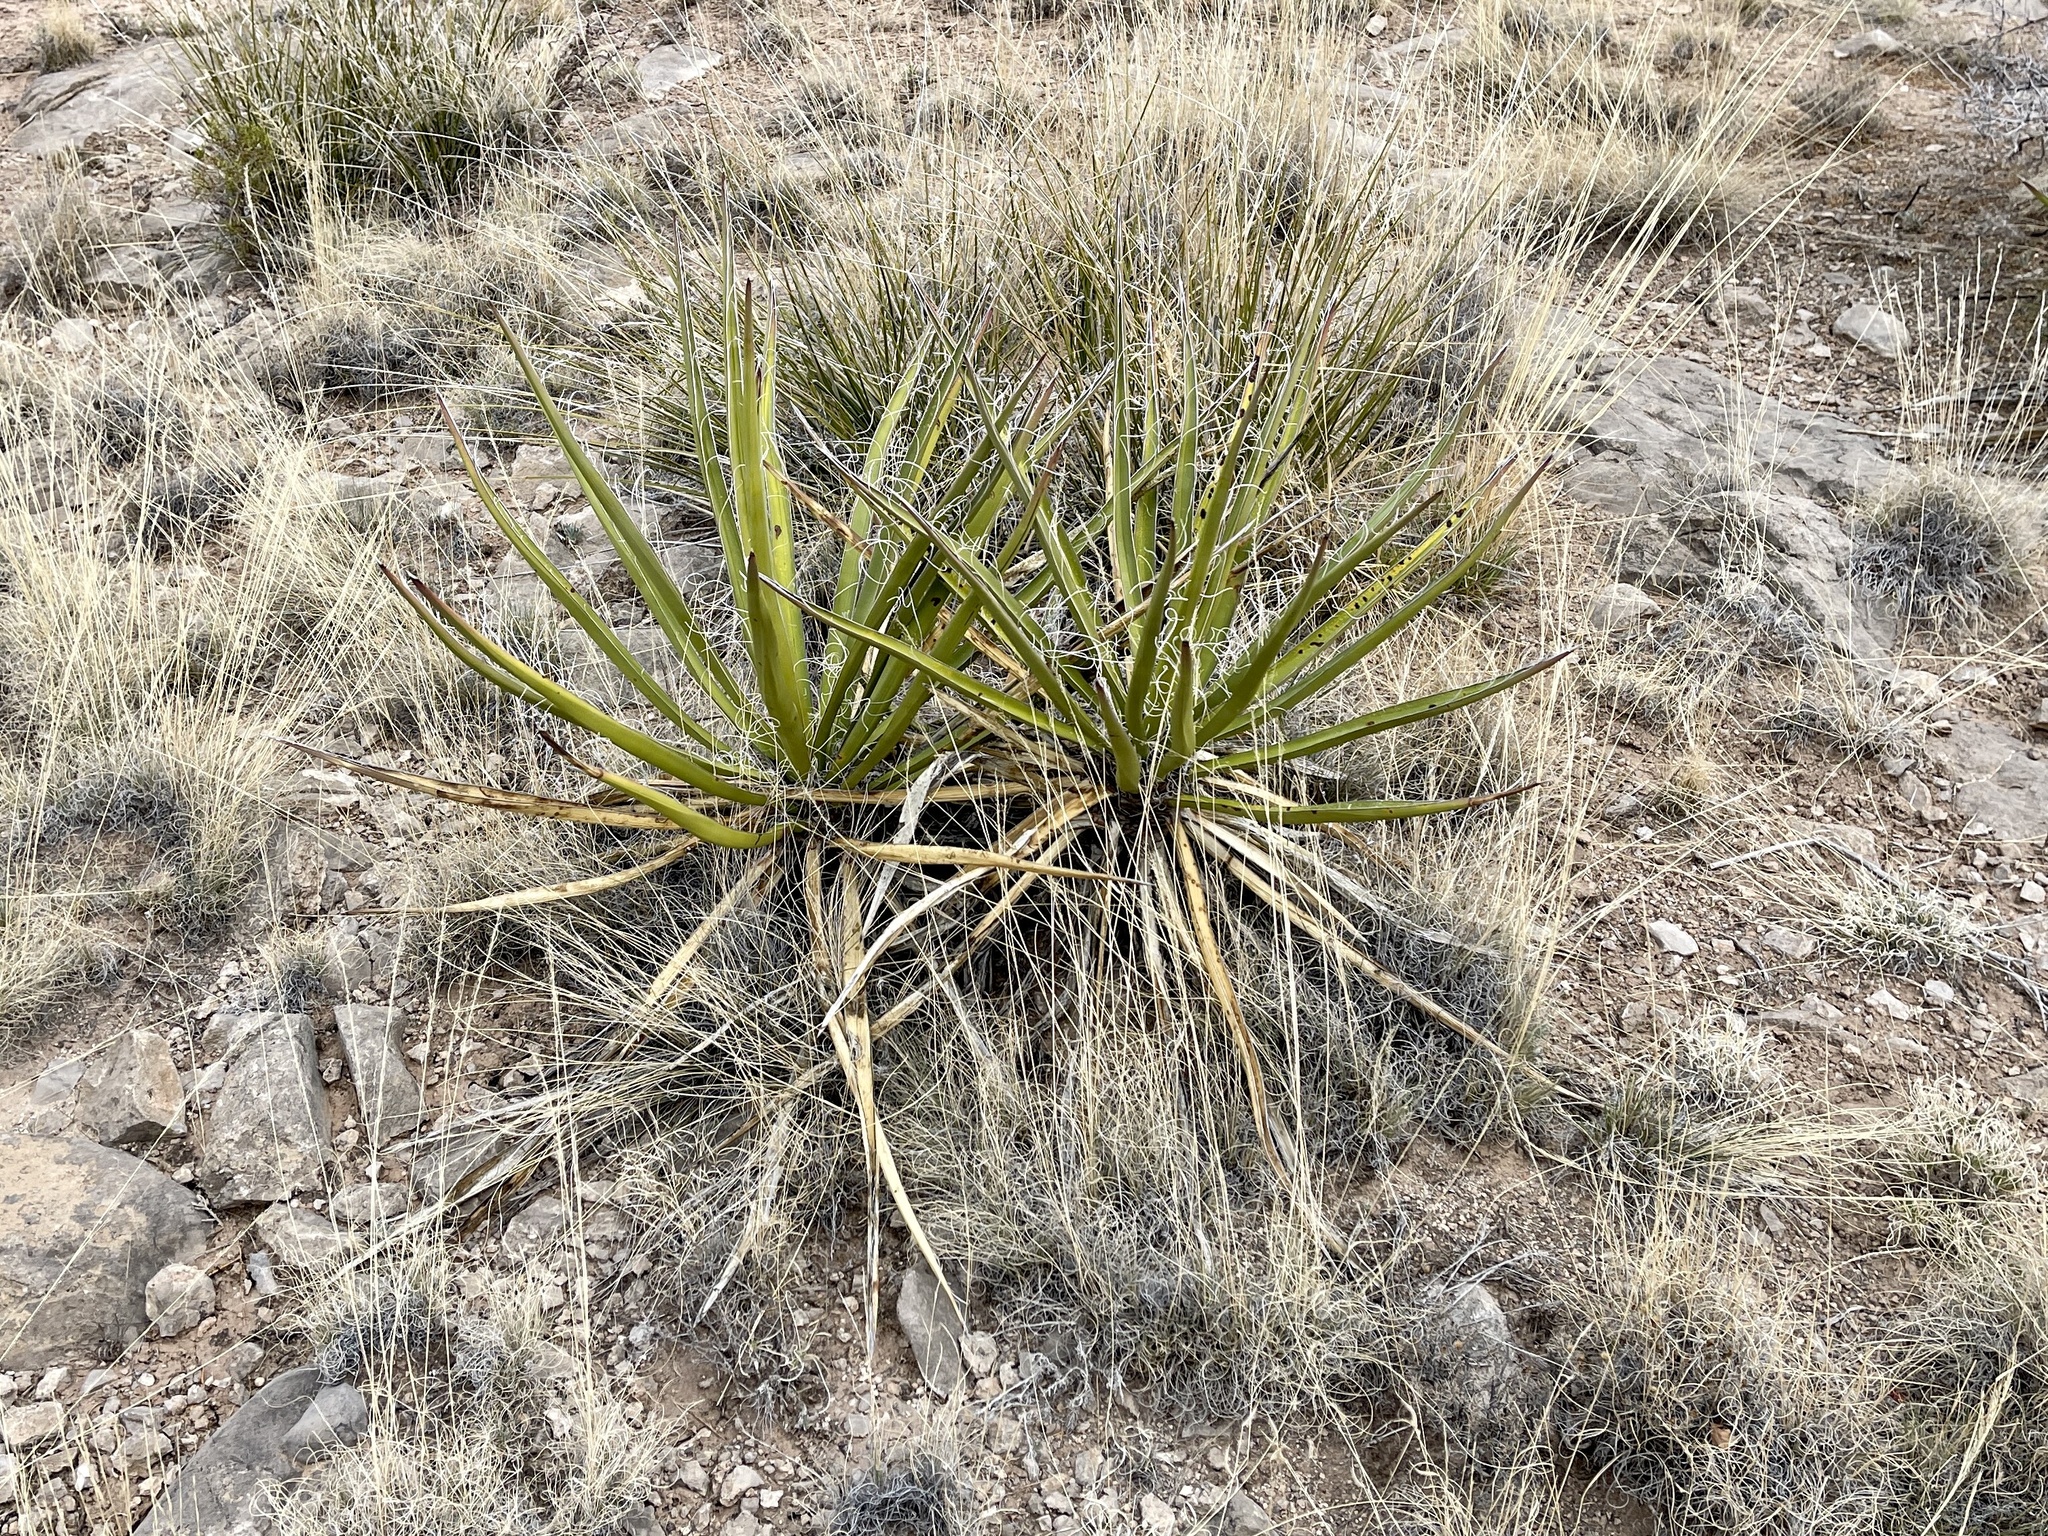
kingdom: Plantae
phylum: Tracheophyta
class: Liliopsida
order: Asparagales
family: Asparagaceae
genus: Yucca
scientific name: Yucca baccata
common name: Banana yucca
